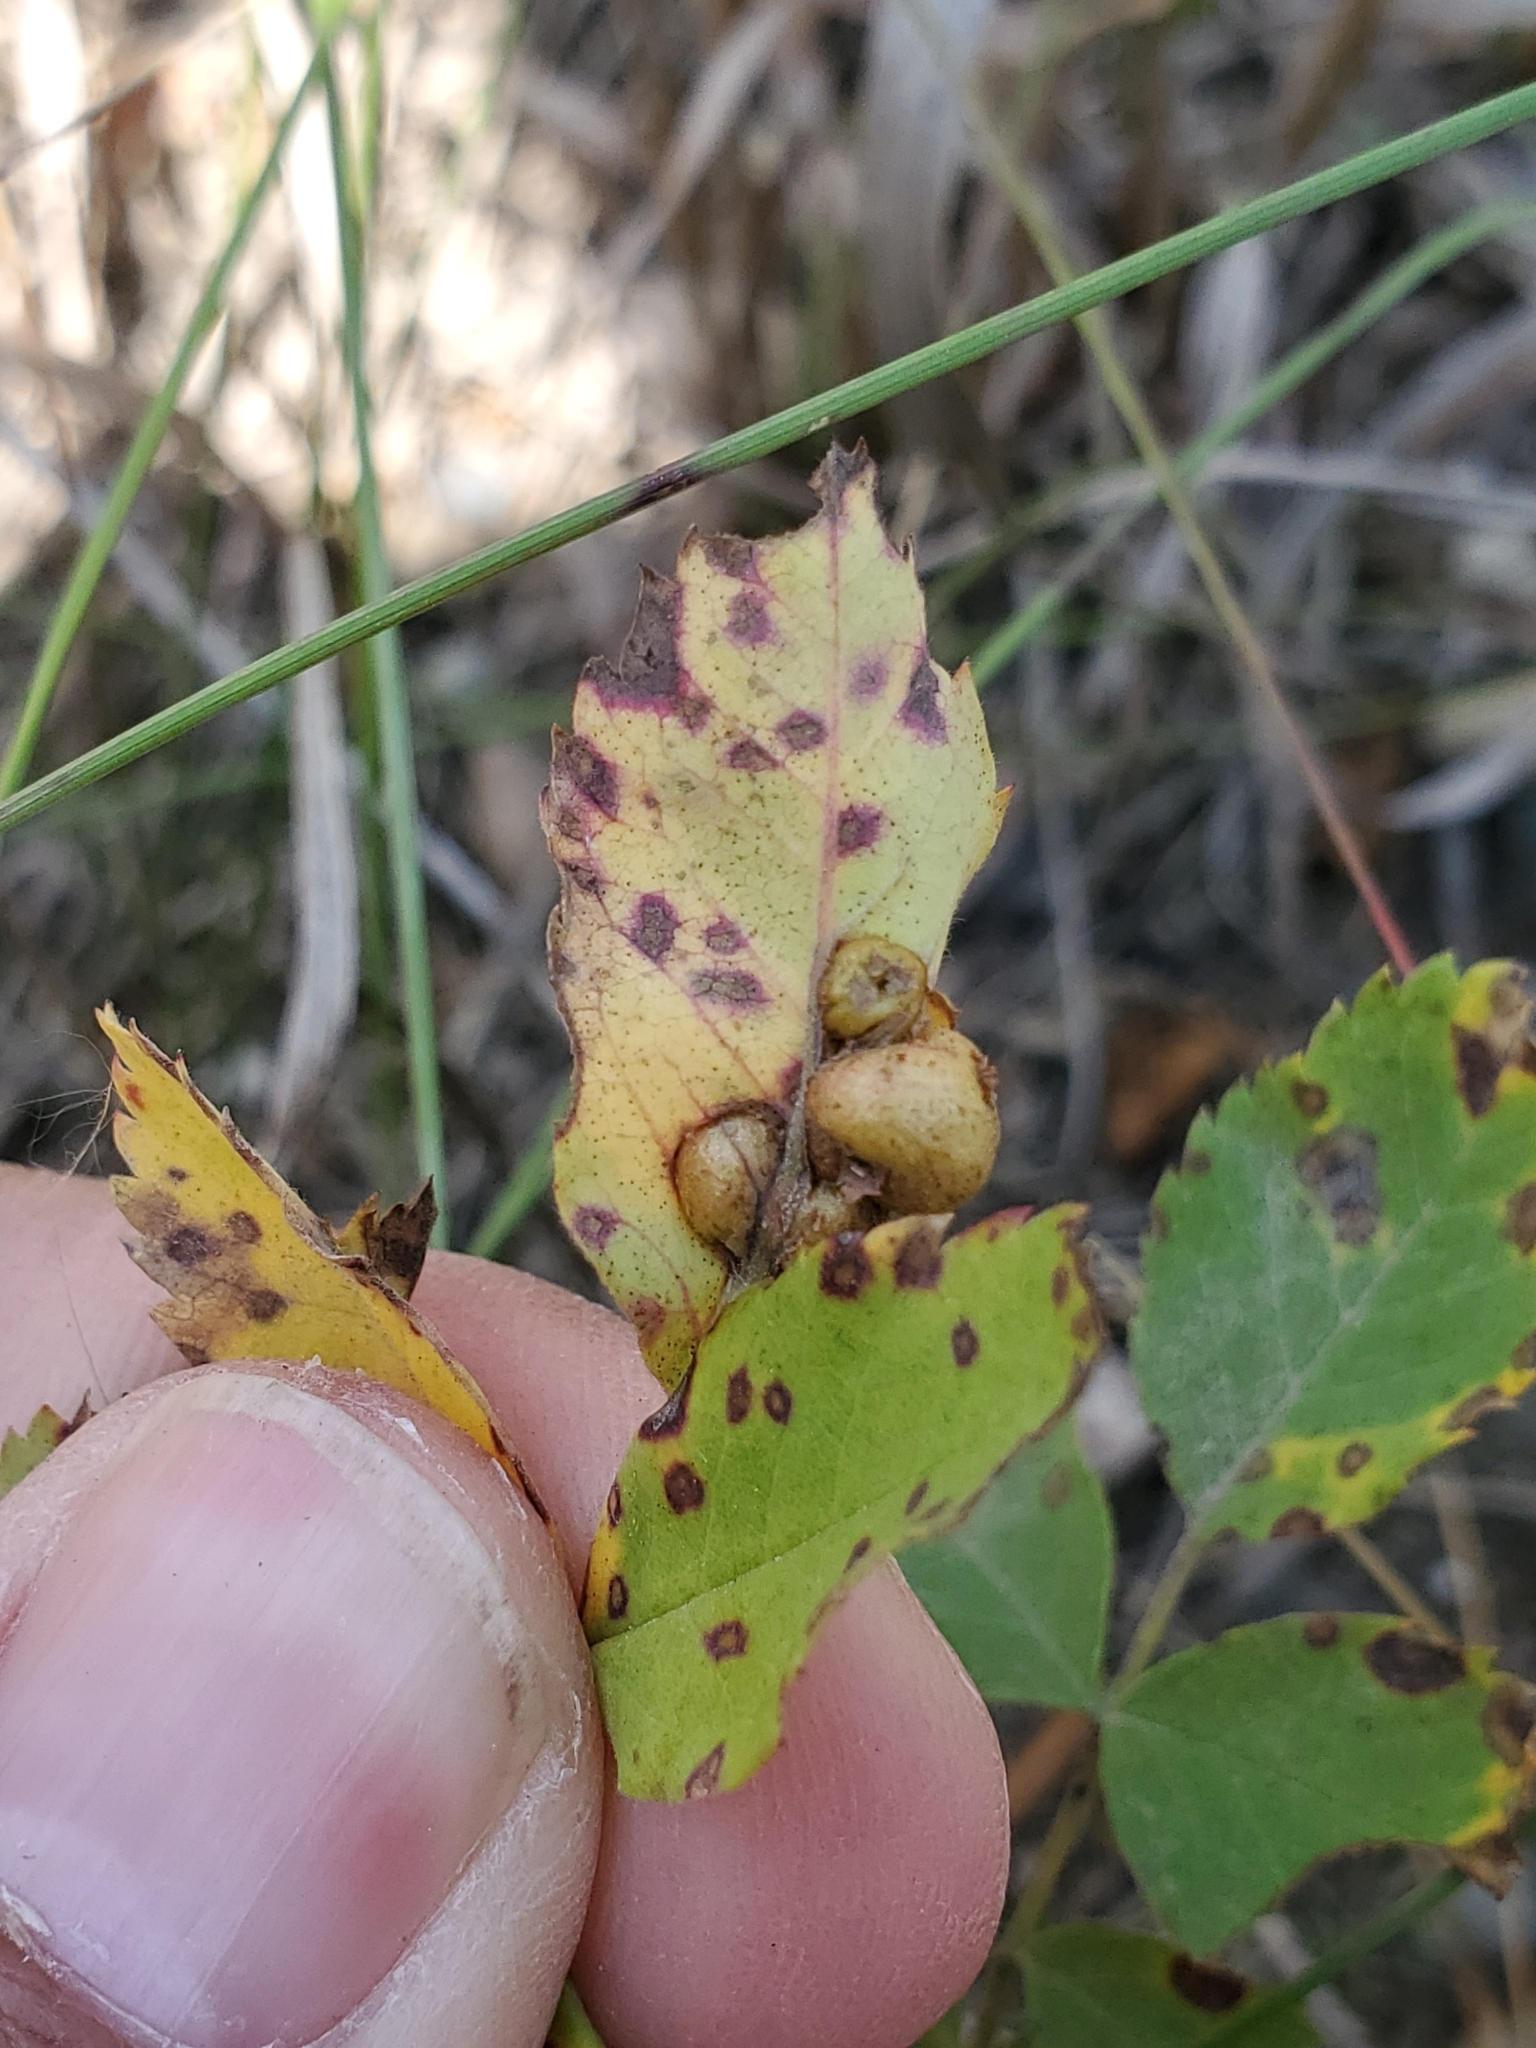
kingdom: Animalia
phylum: Arthropoda
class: Insecta
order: Hymenoptera
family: Cynipidae
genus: Diplolepis
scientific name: Diplolepis ignota
